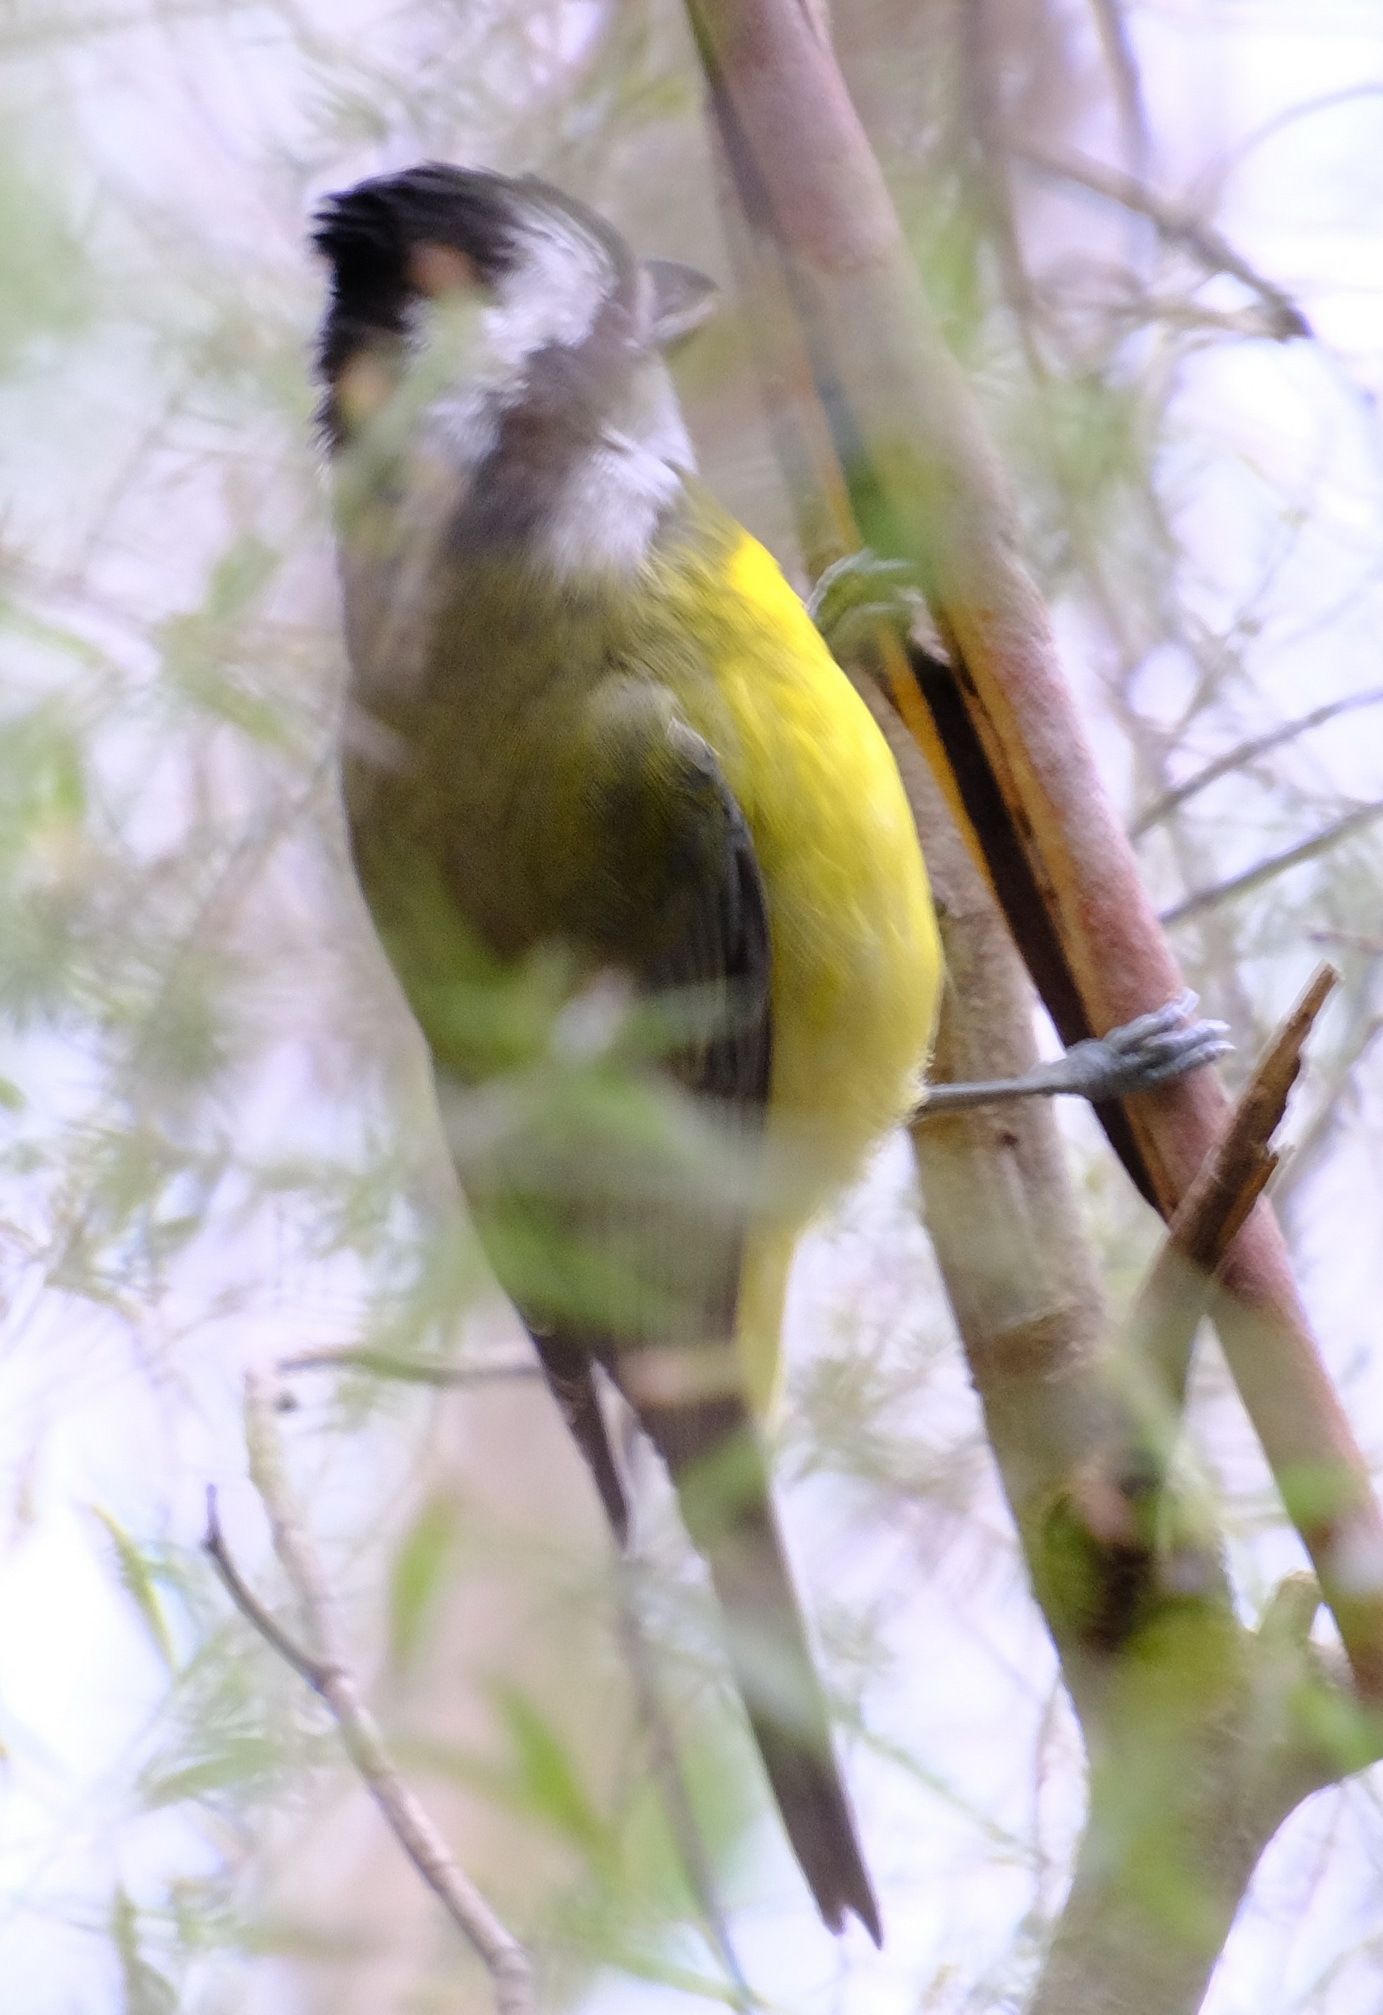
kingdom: Animalia
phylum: Chordata
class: Aves
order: Passeriformes
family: Pachycephalidae
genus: Falcunculus
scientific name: Falcunculus frontatus
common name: Crested shriketit
